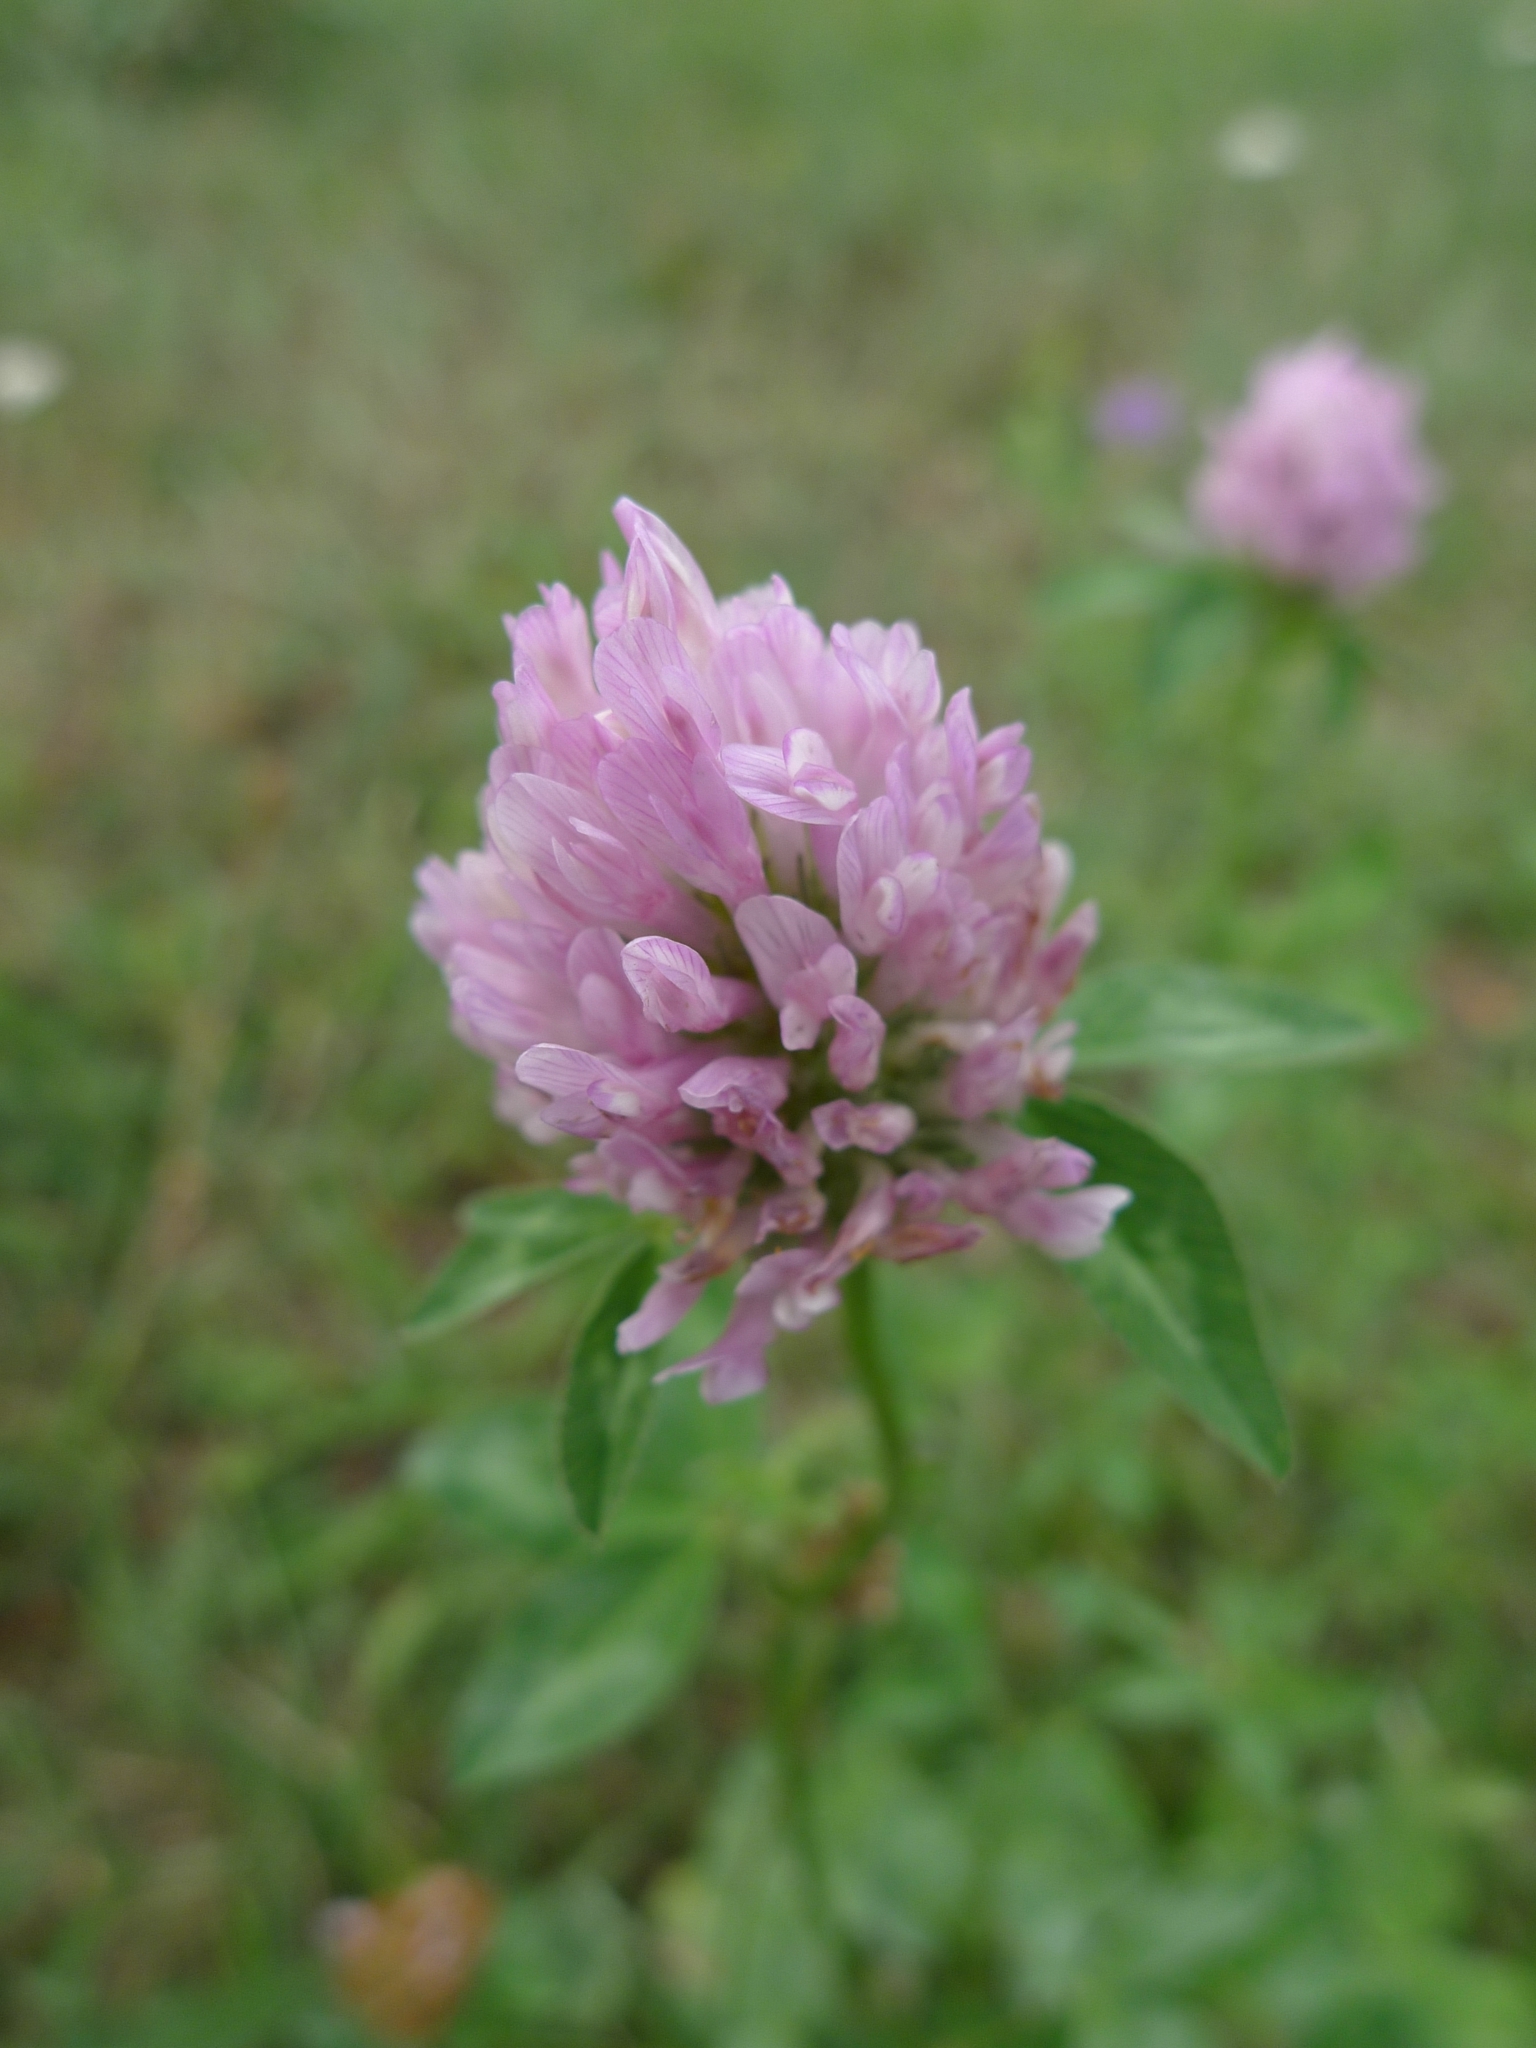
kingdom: Plantae
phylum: Tracheophyta
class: Magnoliopsida
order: Fabales
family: Fabaceae
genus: Trifolium
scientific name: Trifolium pratense
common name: Red clover
